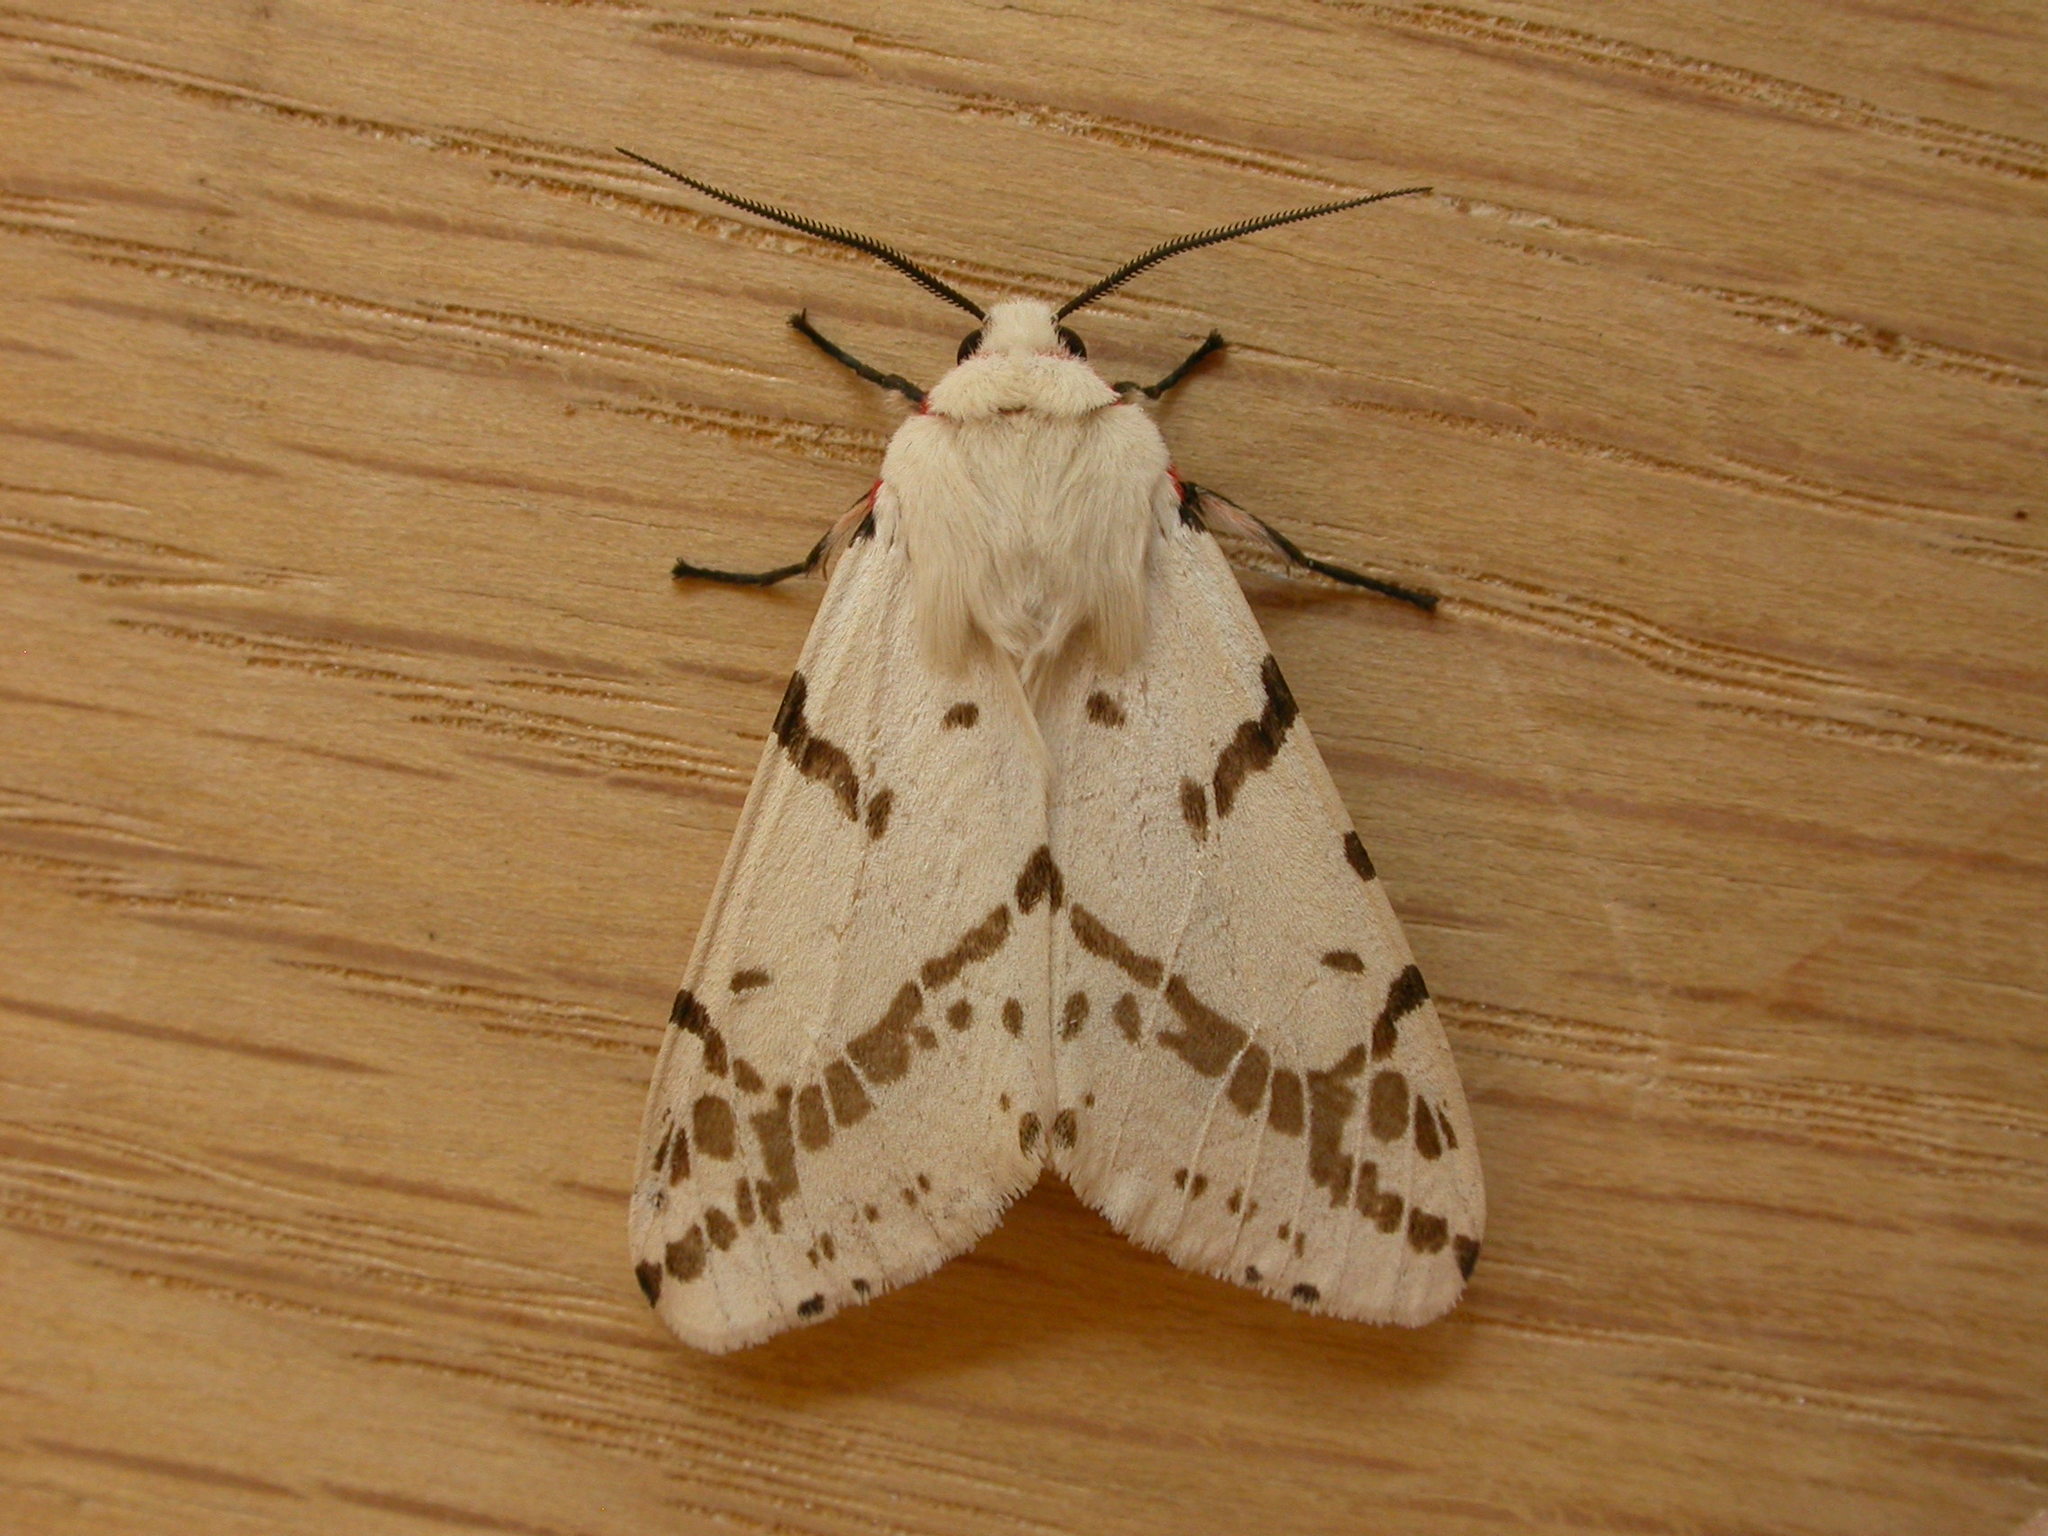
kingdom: Animalia
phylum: Arthropoda
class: Insecta
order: Lepidoptera
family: Erebidae
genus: Ardices
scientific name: Ardices canescens
